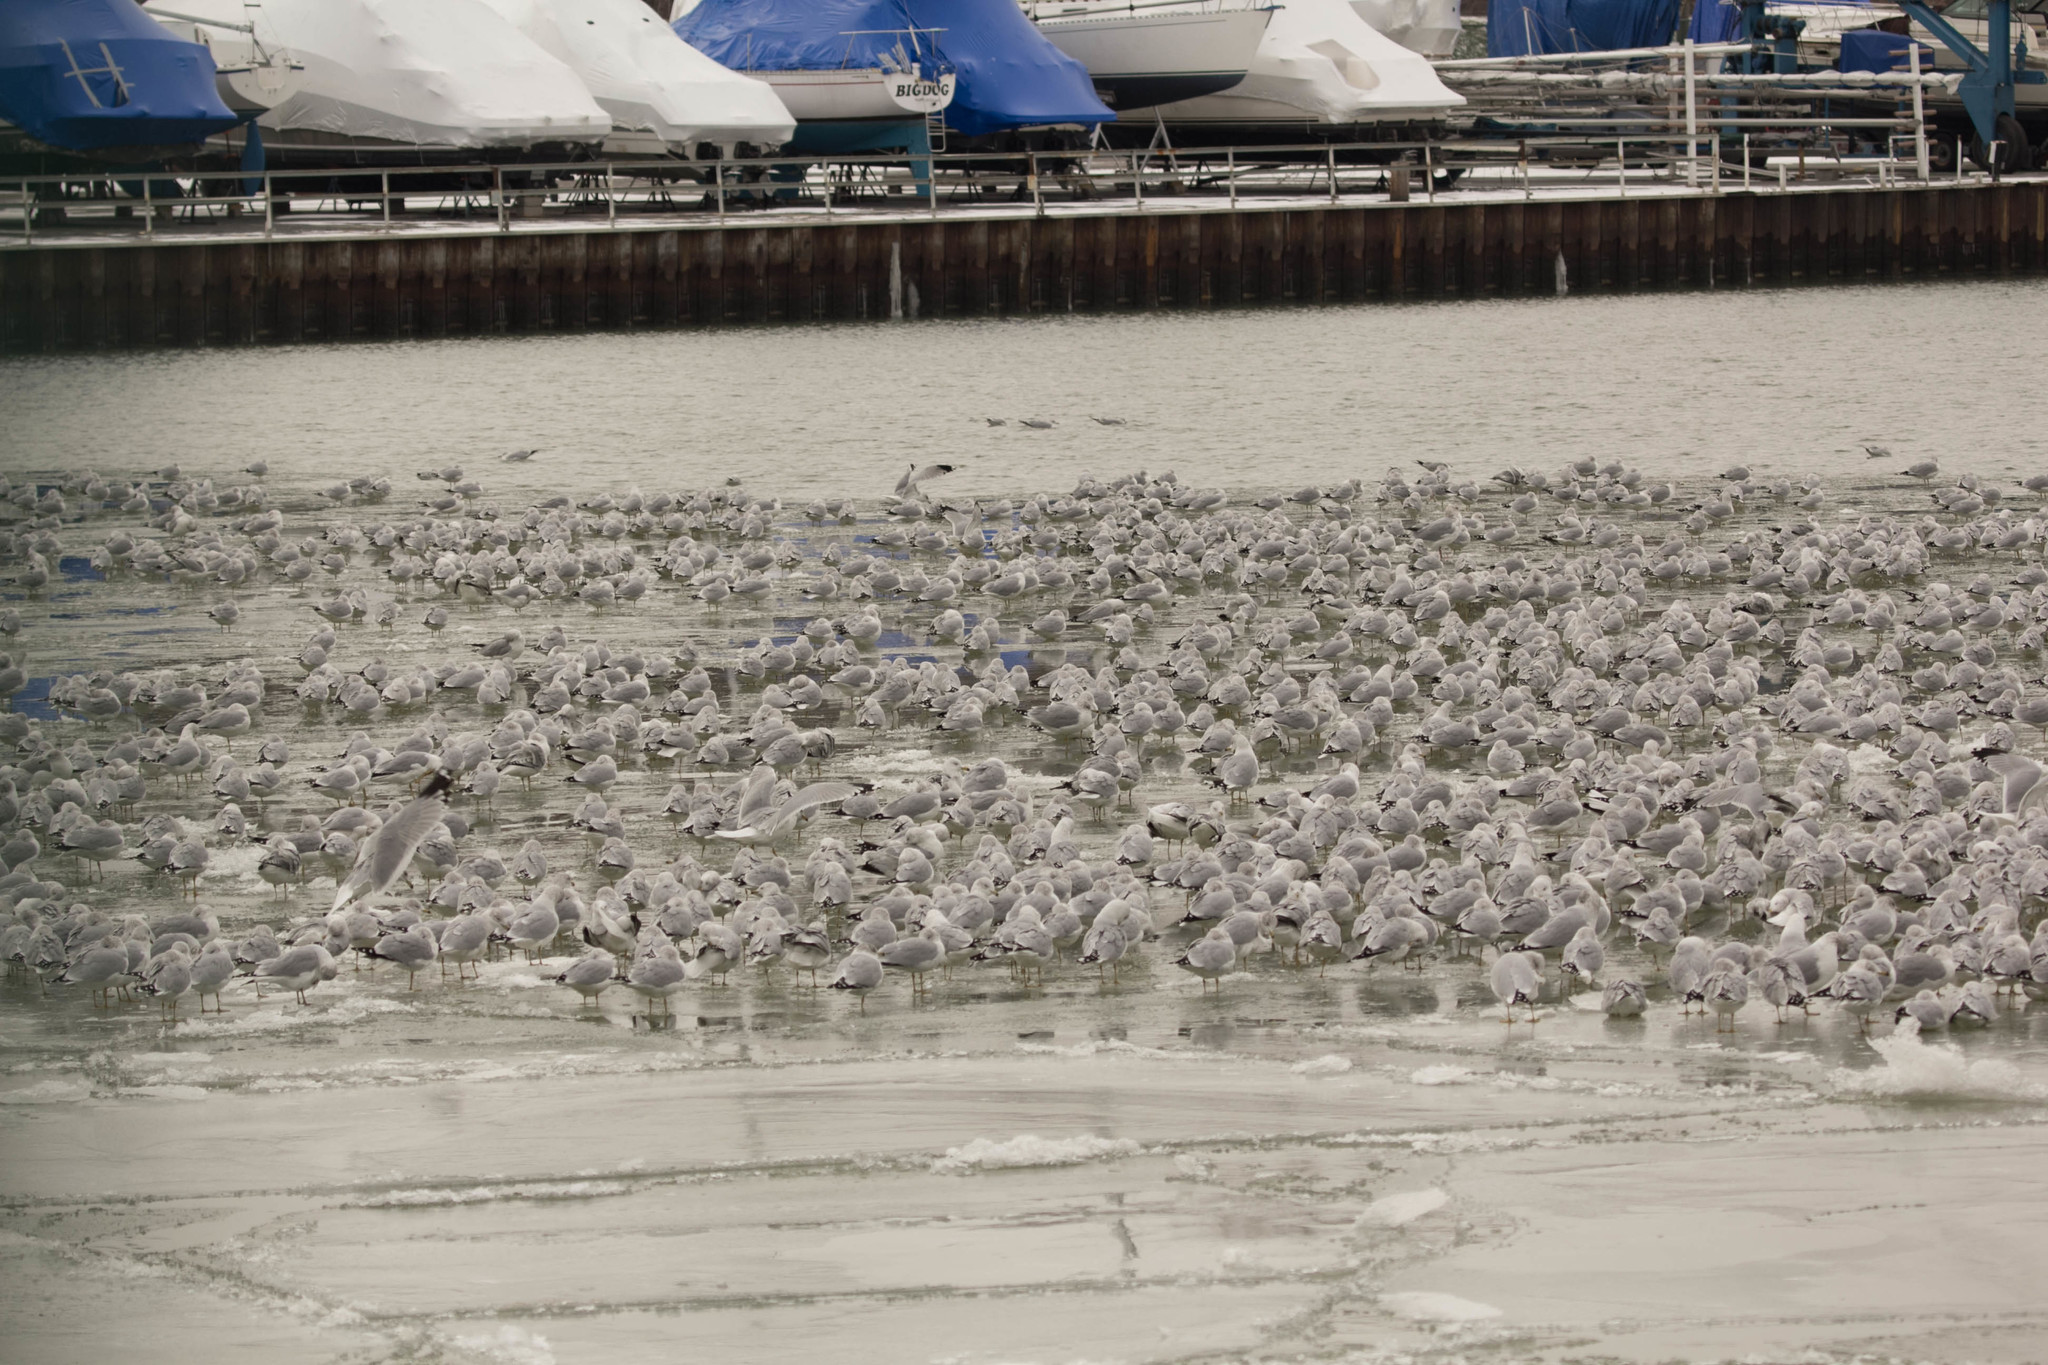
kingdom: Animalia
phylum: Chordata
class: Aves
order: Charadriiformes
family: Laridae
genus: Larus
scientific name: Larus delawarensis
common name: Ring-billed gull
